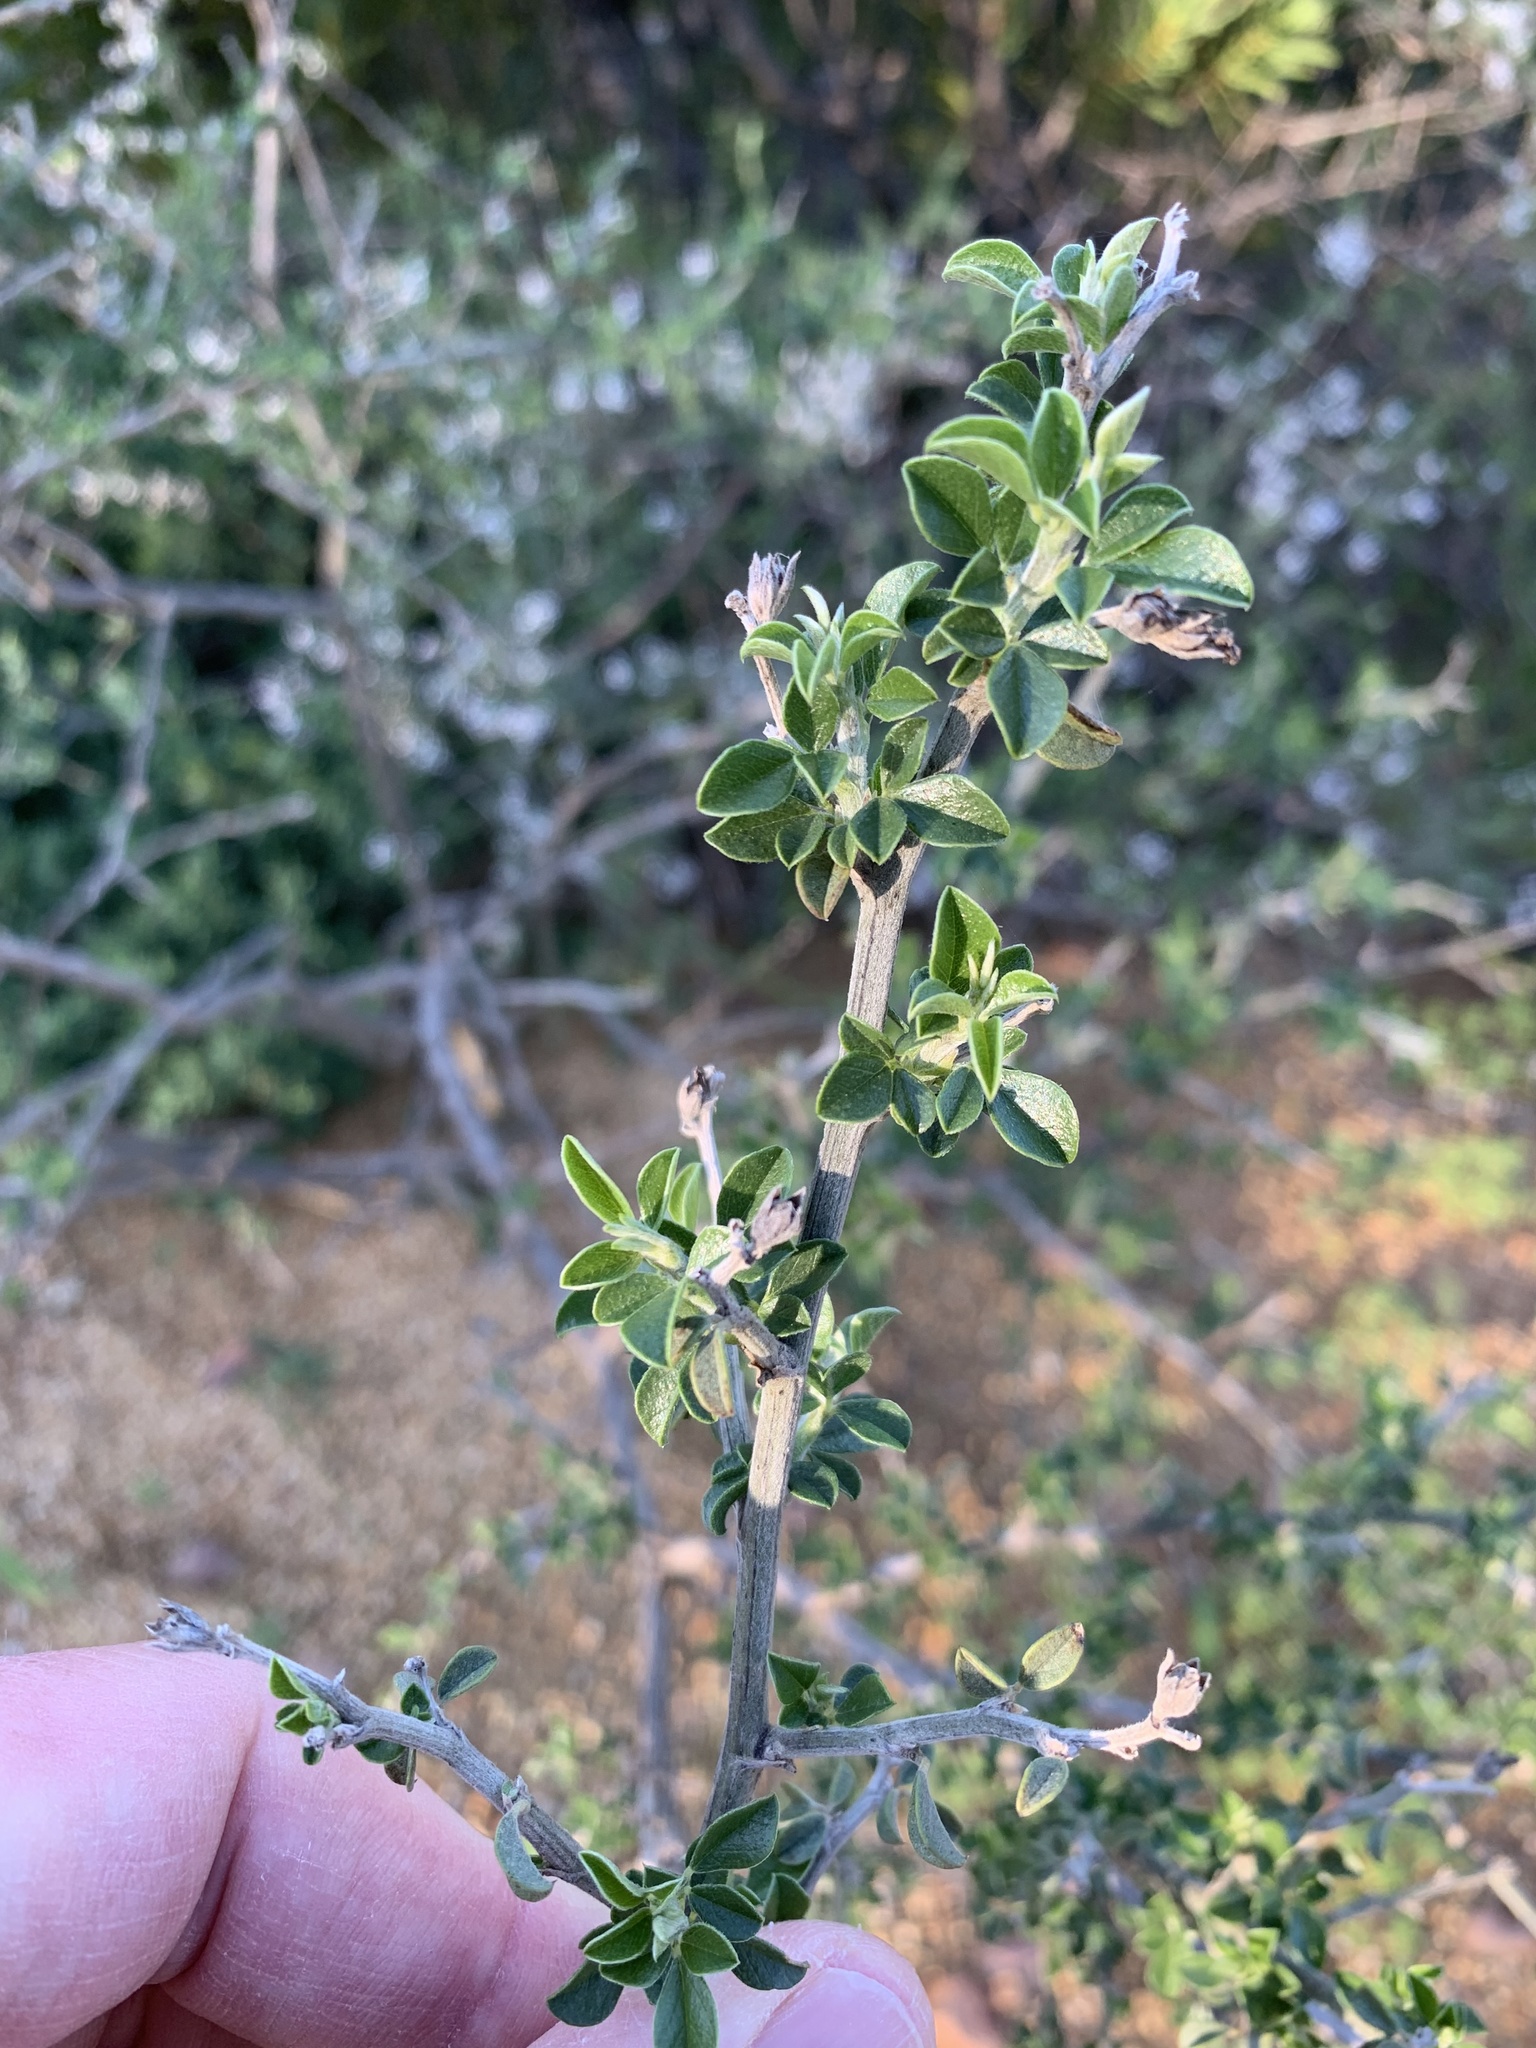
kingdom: Plantae
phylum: Tracheophyta
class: Magnoliopsida
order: Fabales
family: Fabaceae
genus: Psoralea
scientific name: Psoralea hirta
